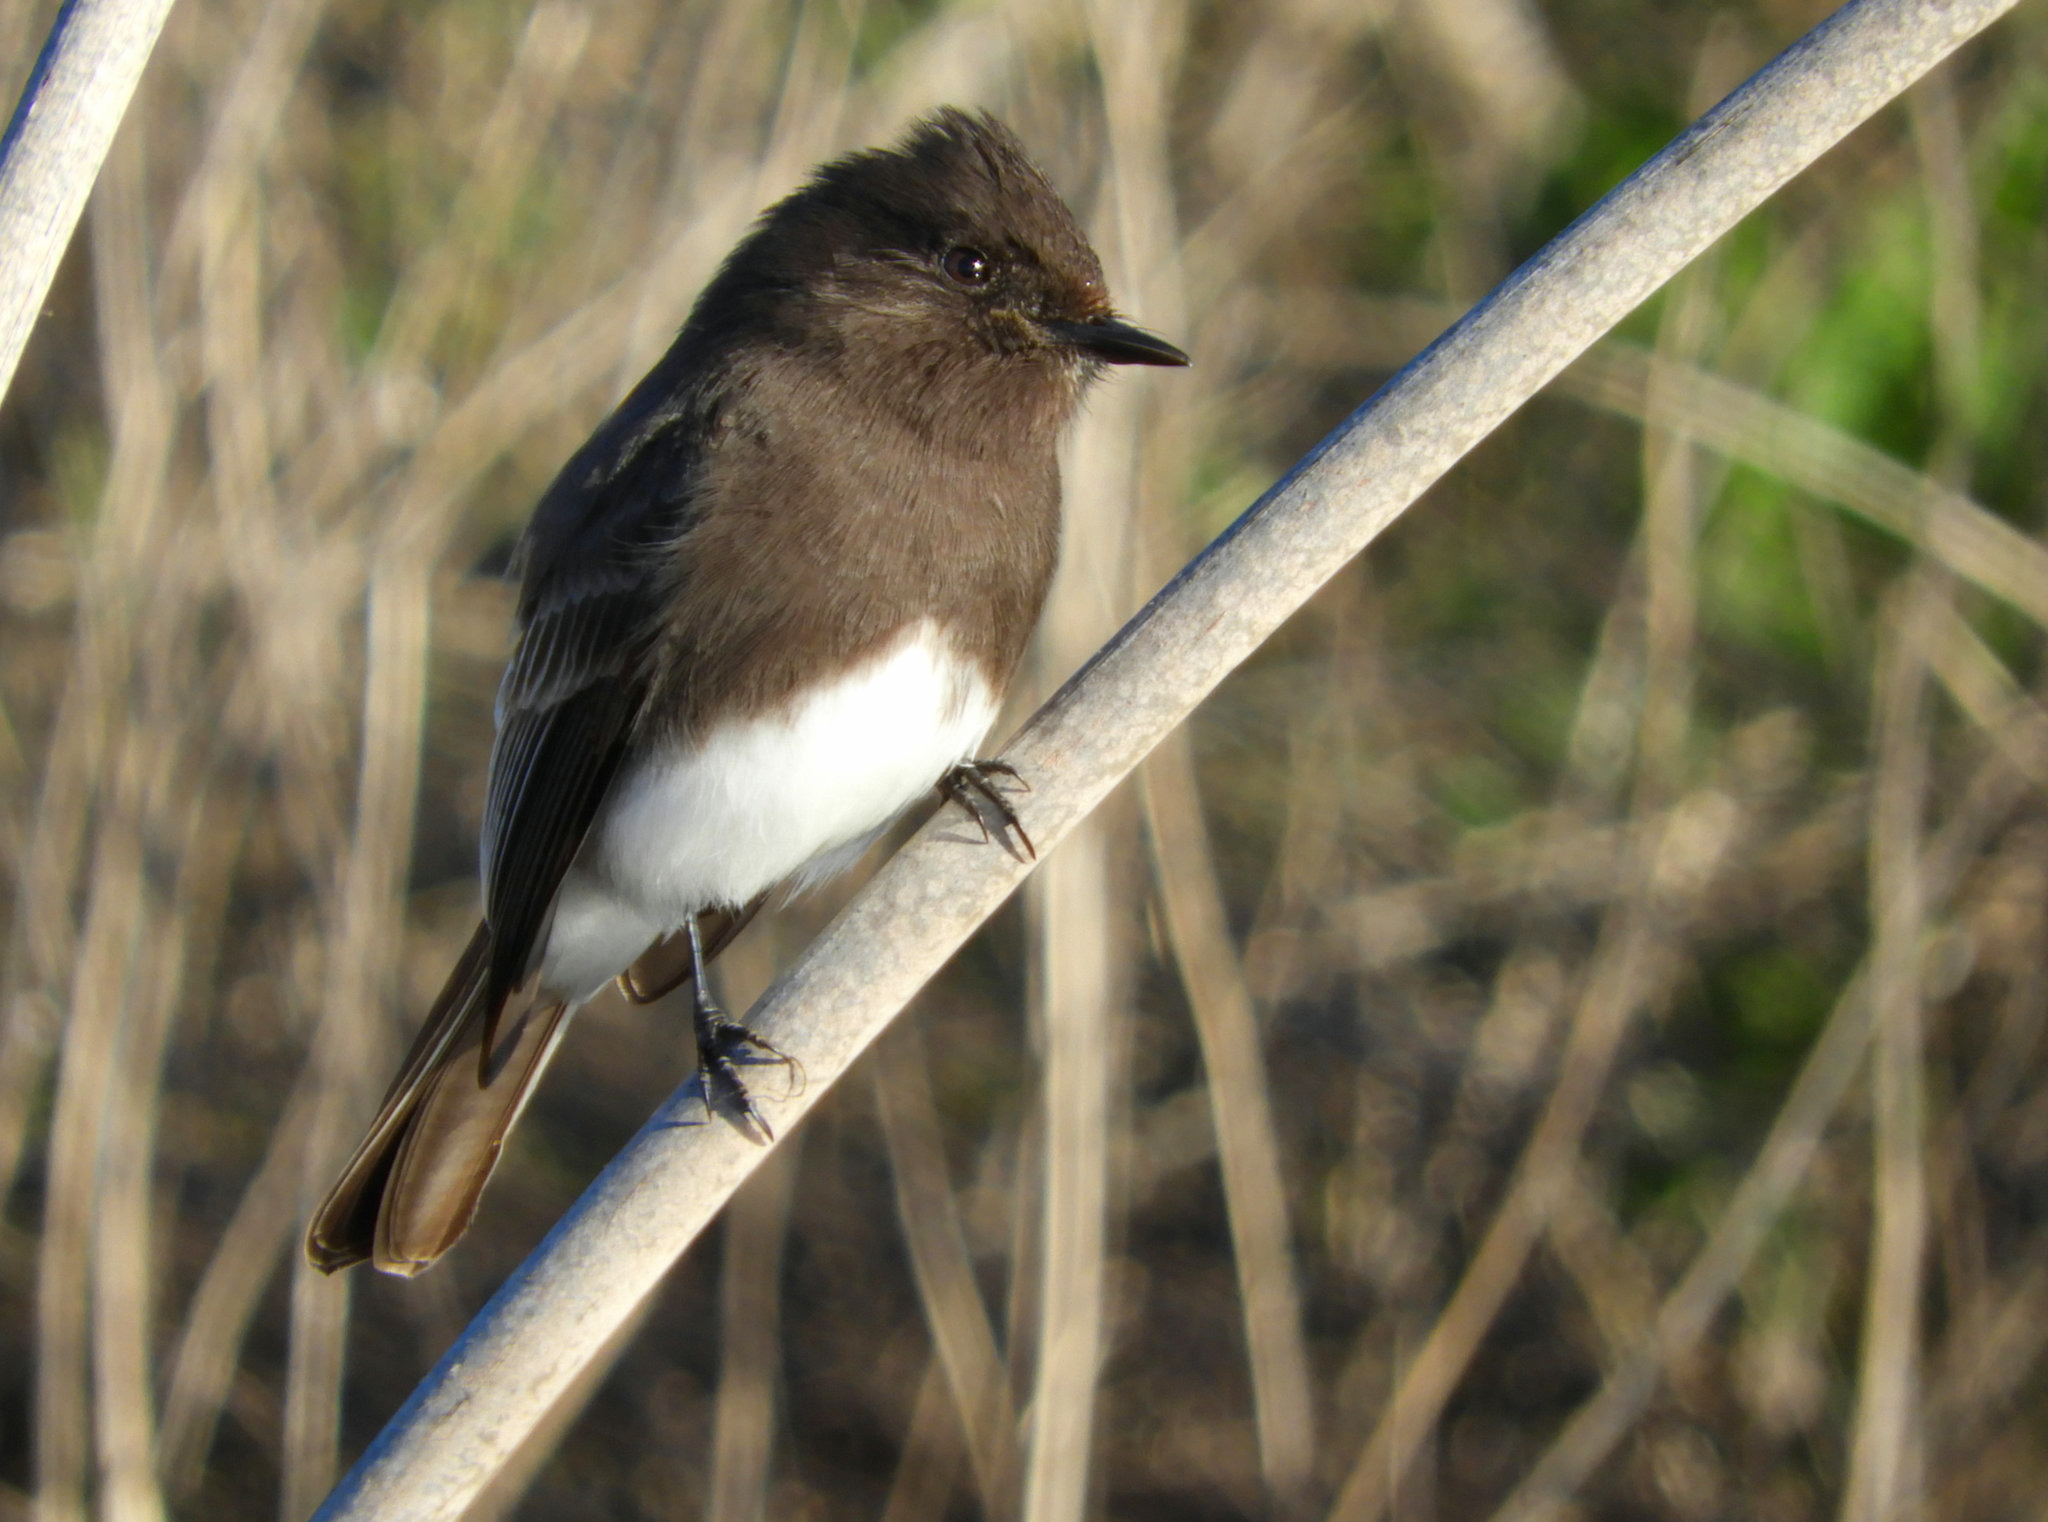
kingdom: Animalia
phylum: Chordata
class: Aves
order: Passeriformes
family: Tyrannidae
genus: Sayornis
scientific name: Sayornis nigricans
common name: Black phoebe
